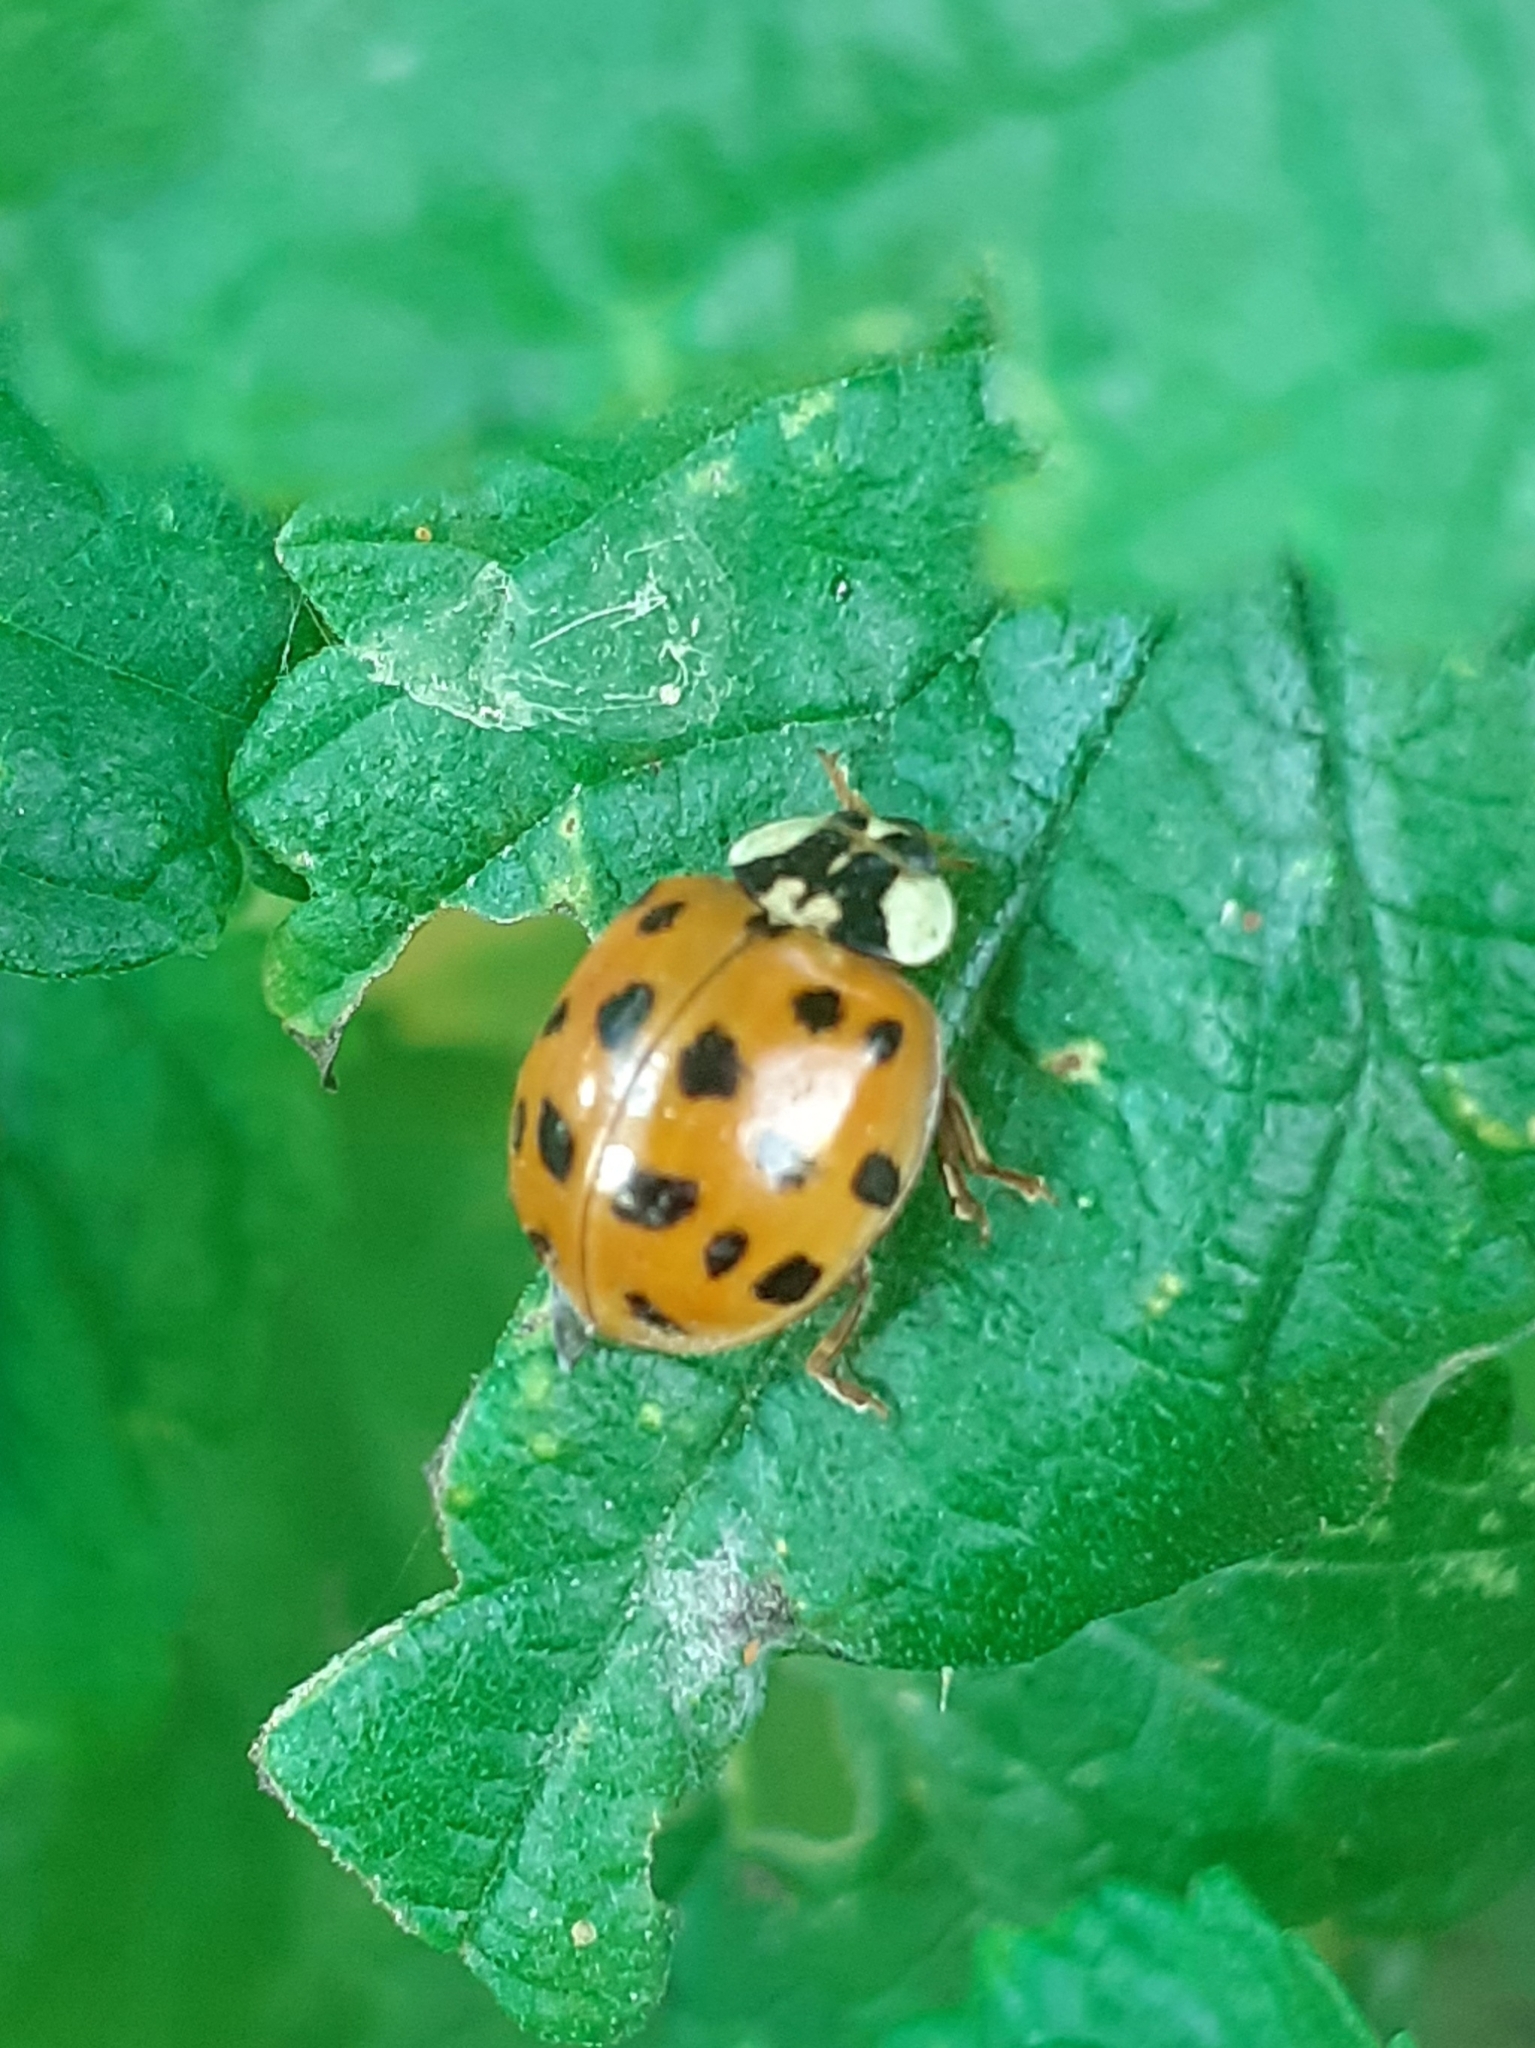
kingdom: Animalia
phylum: Arthropoda
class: Insecta
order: Coleoptera
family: Coccinellidae
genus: Harmonia
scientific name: Harmonia axyridis
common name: Harlequin ladybird
